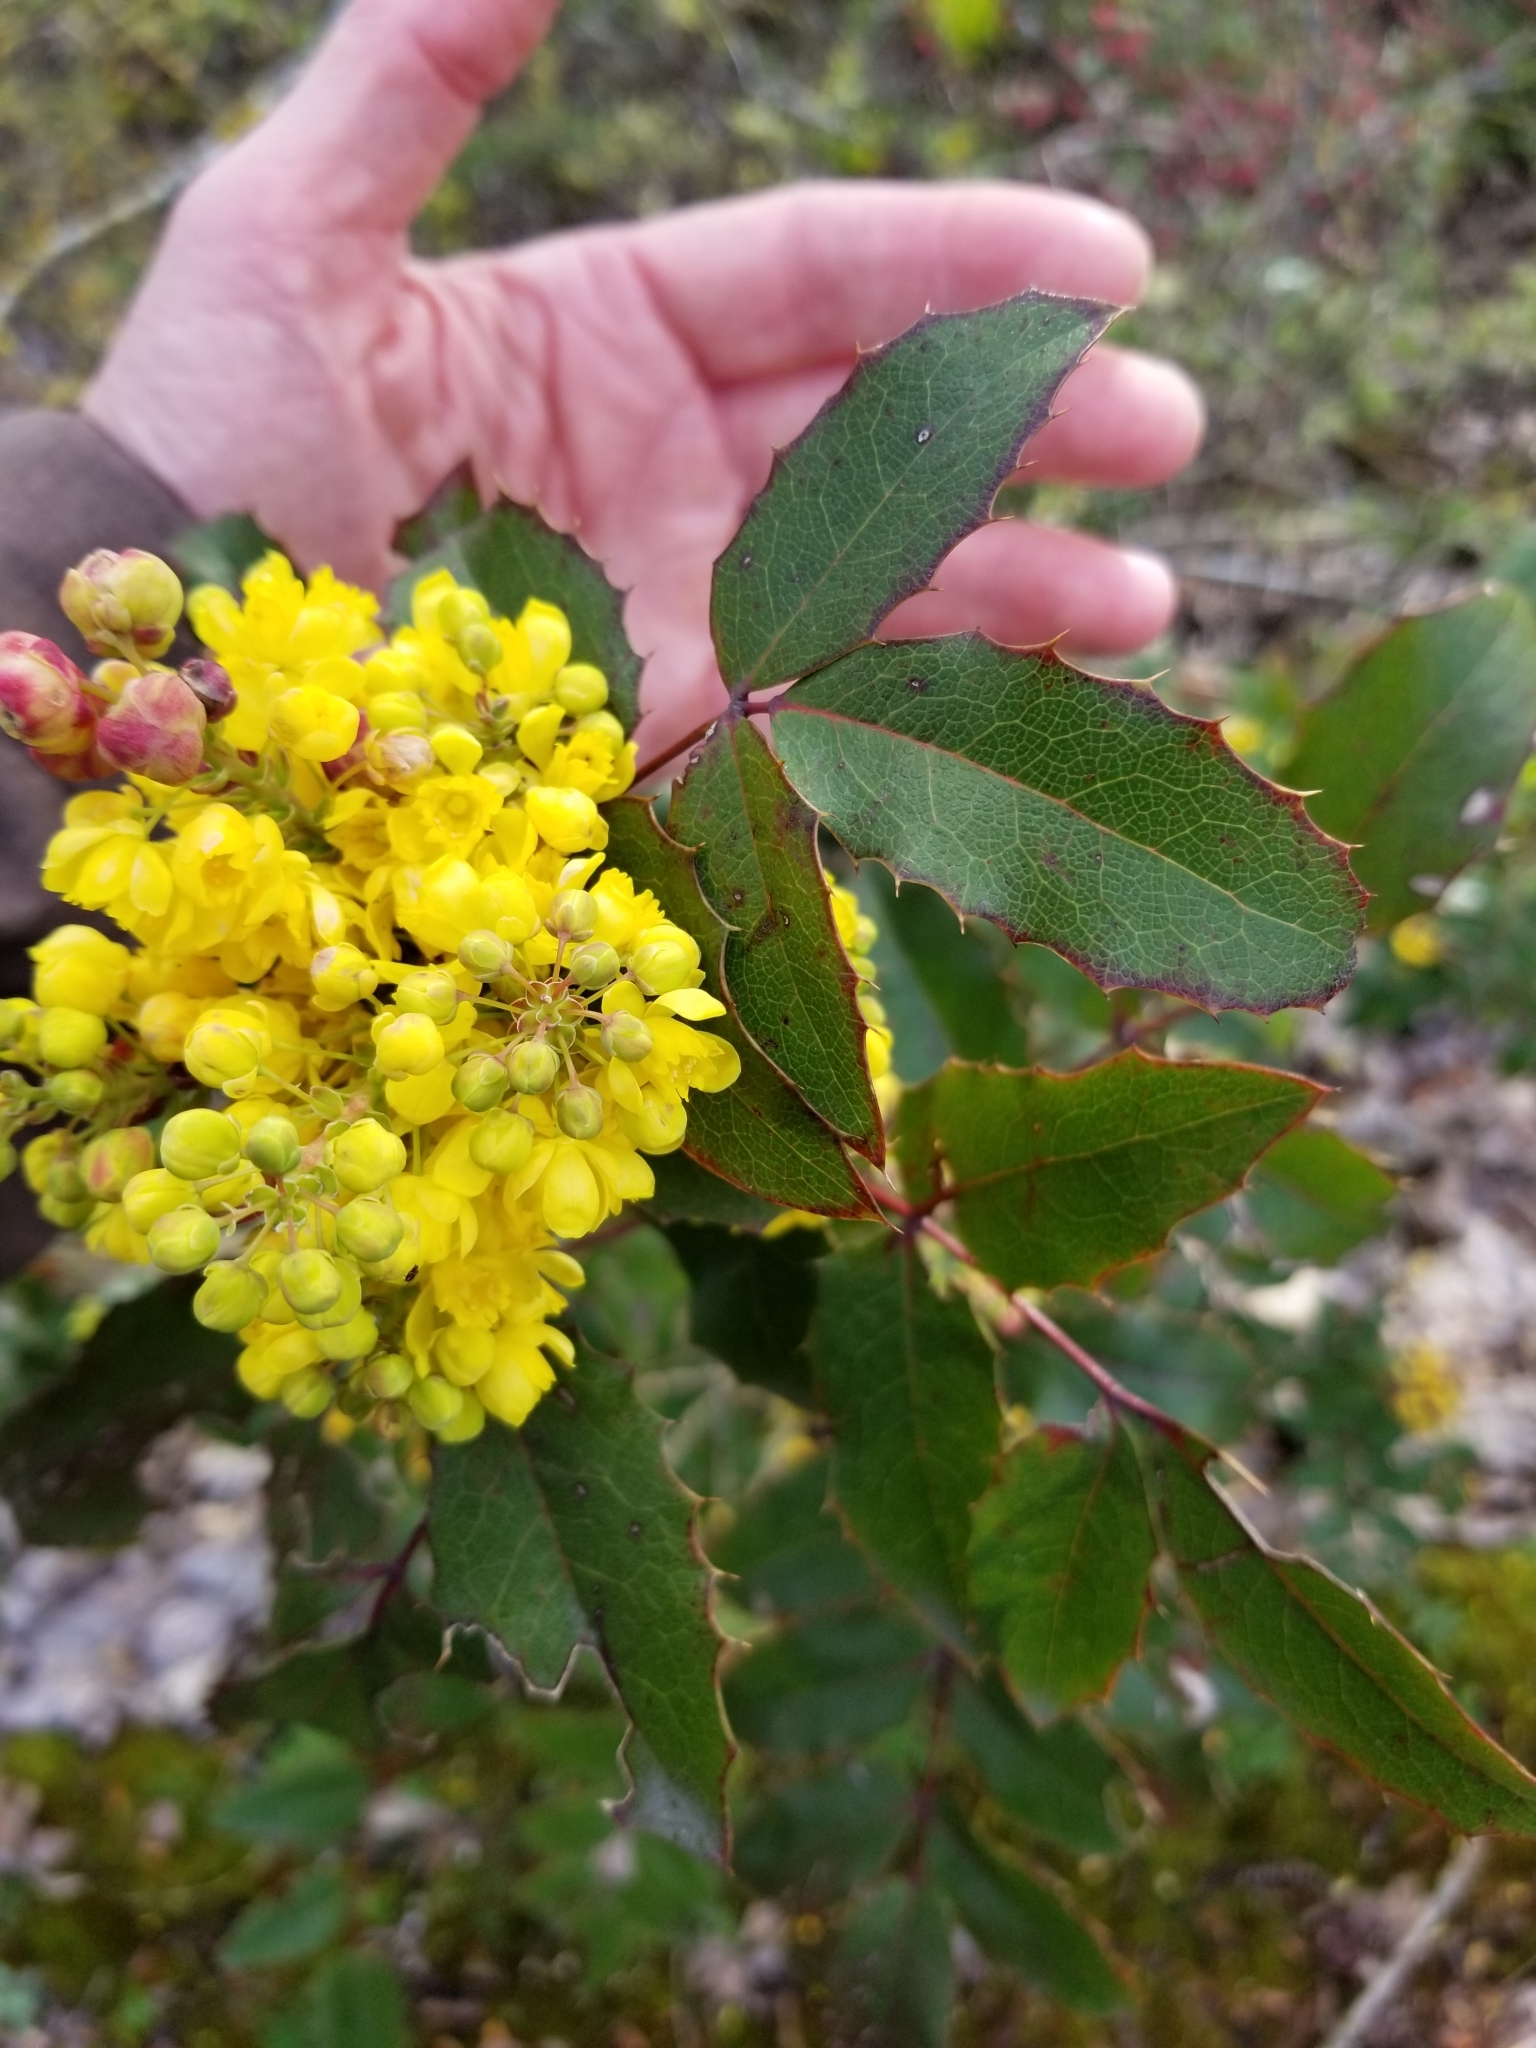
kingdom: Plantae
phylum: Tracheophyta
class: Magnoliopsida
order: Ranunculales
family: Berberidaceae
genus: Mahonia
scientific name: Mahonia aquifolium
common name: Oregon-grape
